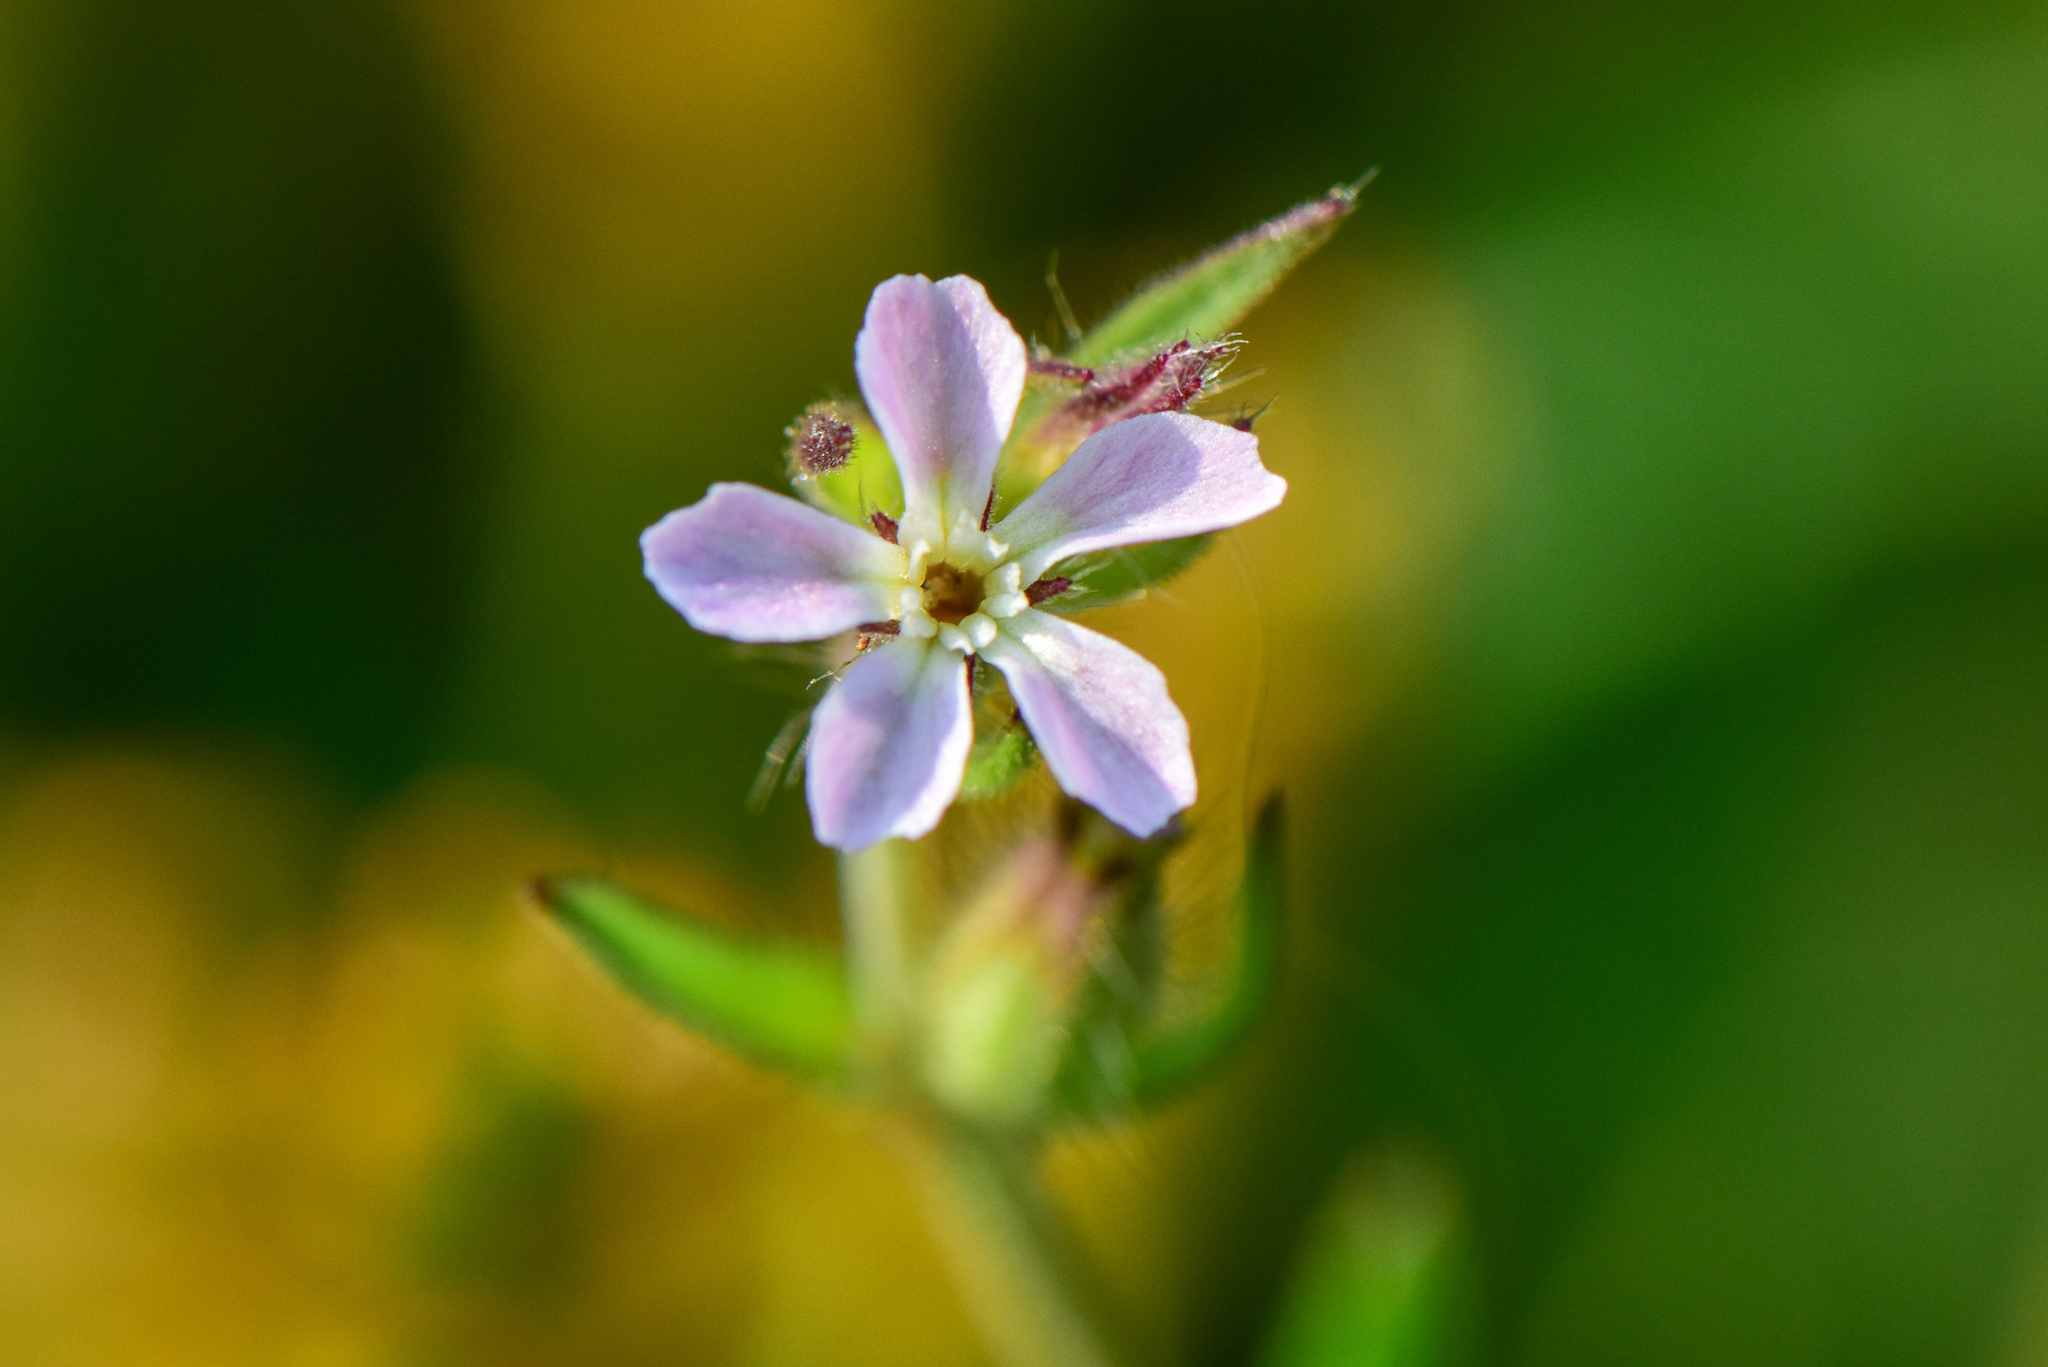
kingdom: Plantae
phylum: Tracheophyta
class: Magnoliopsida
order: Caryophyllales
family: Caryophyllaceae
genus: Silene
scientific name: Silene gallica
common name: Small-flowered catchfly
